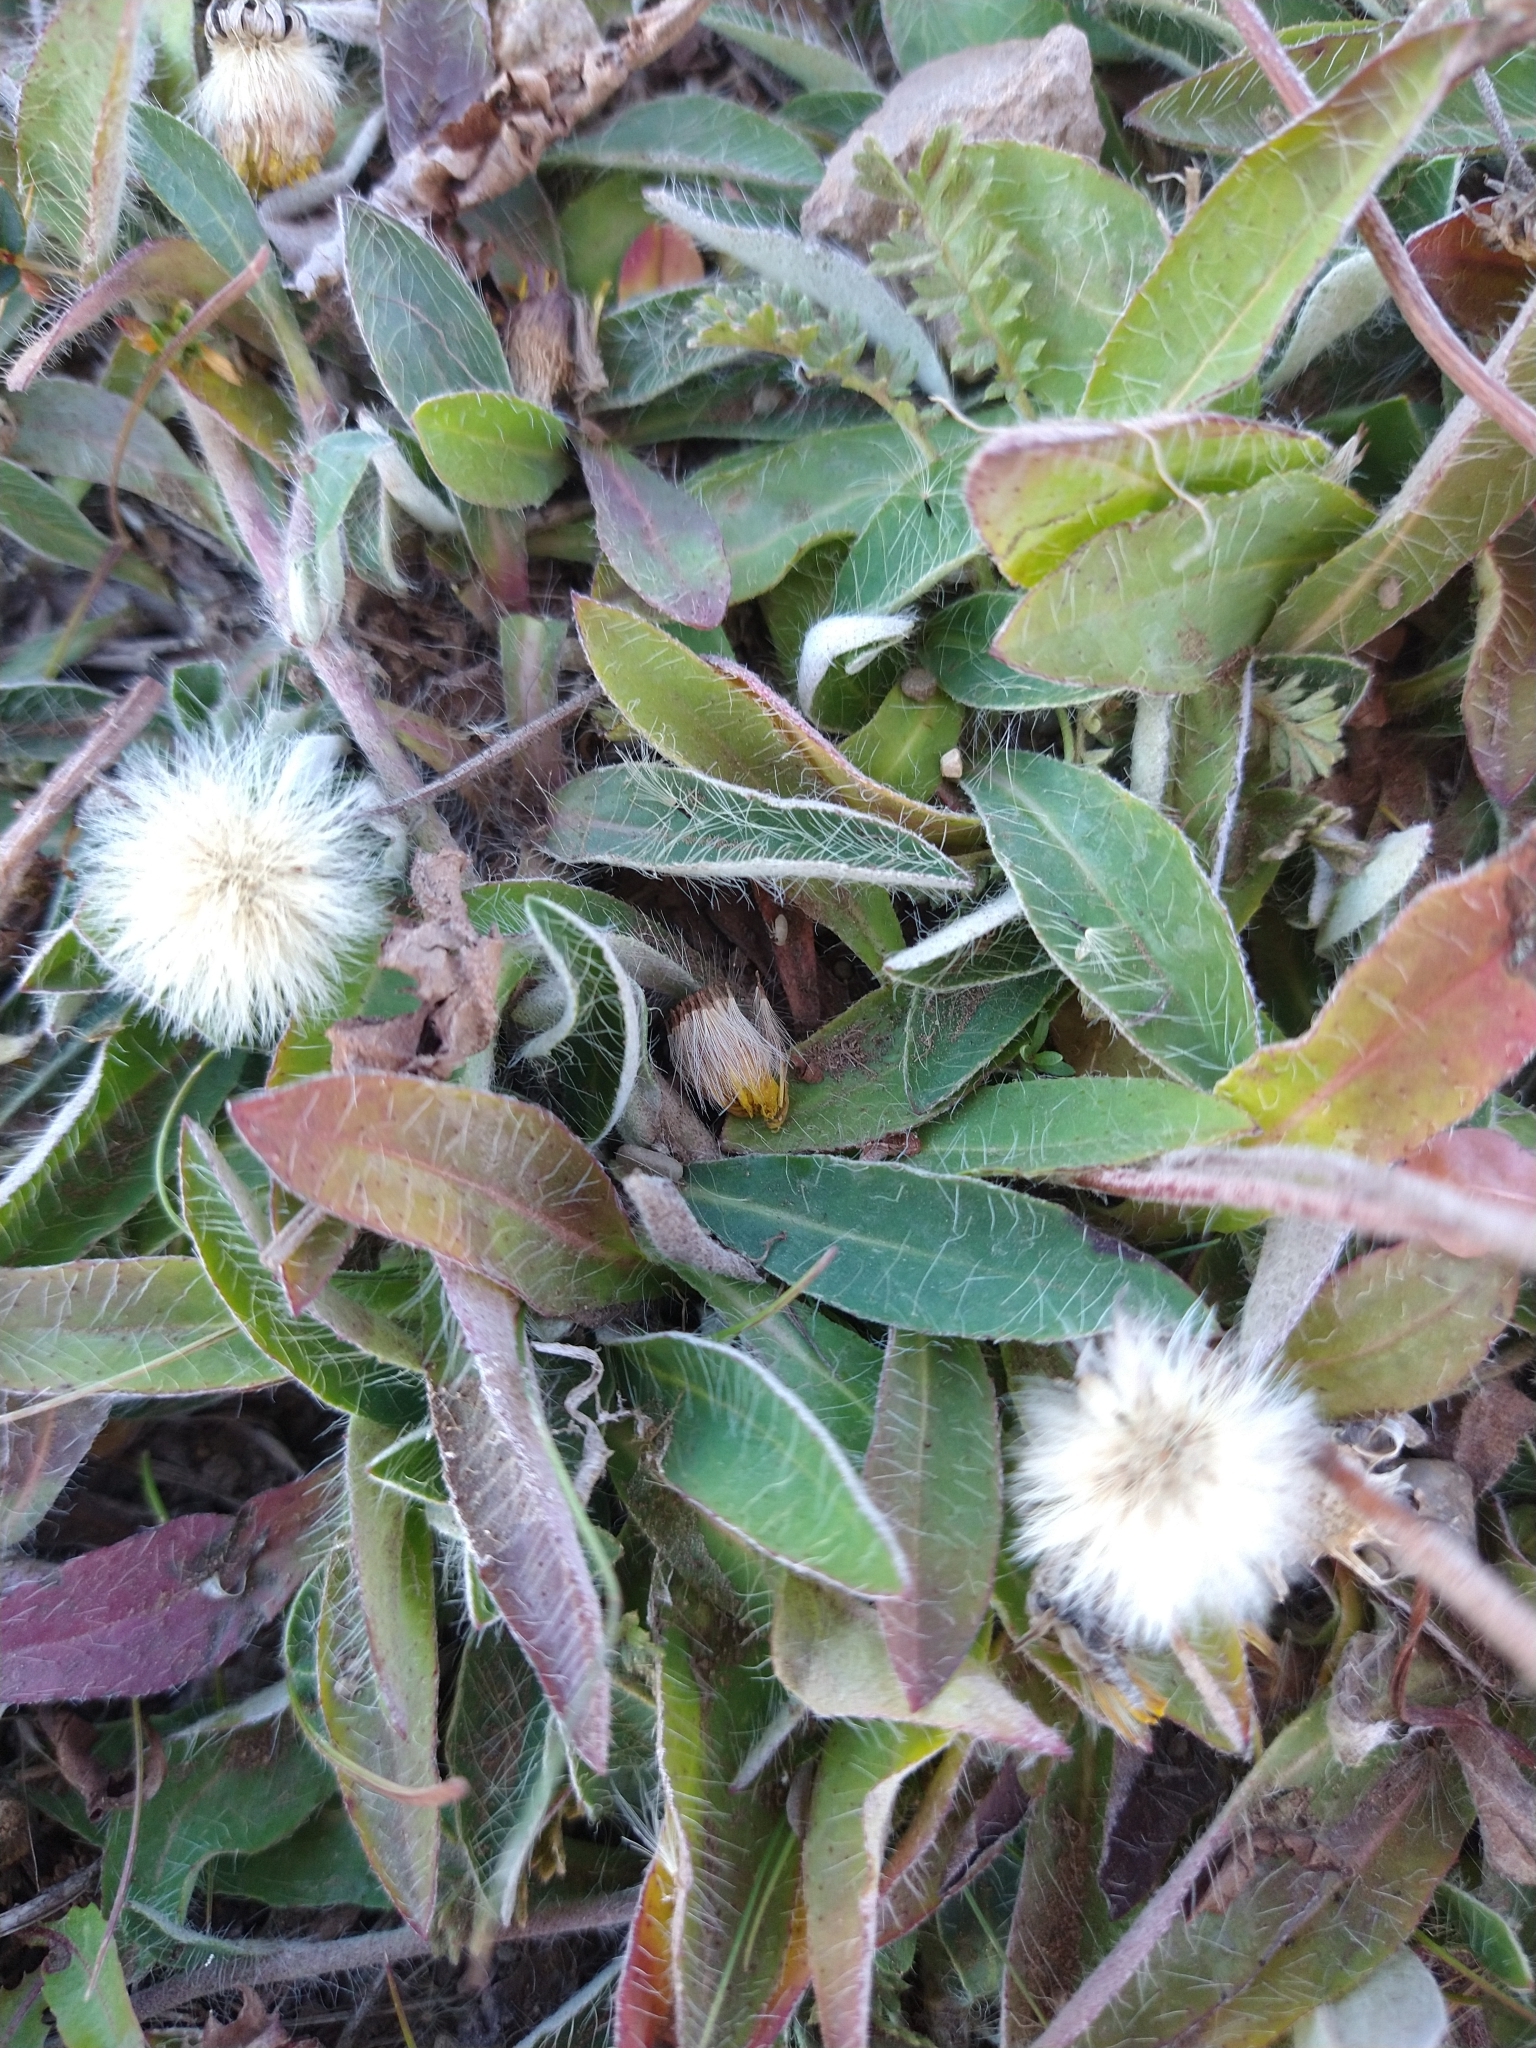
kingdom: Plantae
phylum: Tracheophyta
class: Magnoliopsida
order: Asterales
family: Asteraceae
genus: Pilosella
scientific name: Pilosella officinarum
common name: Mouse-ear hawkweed
